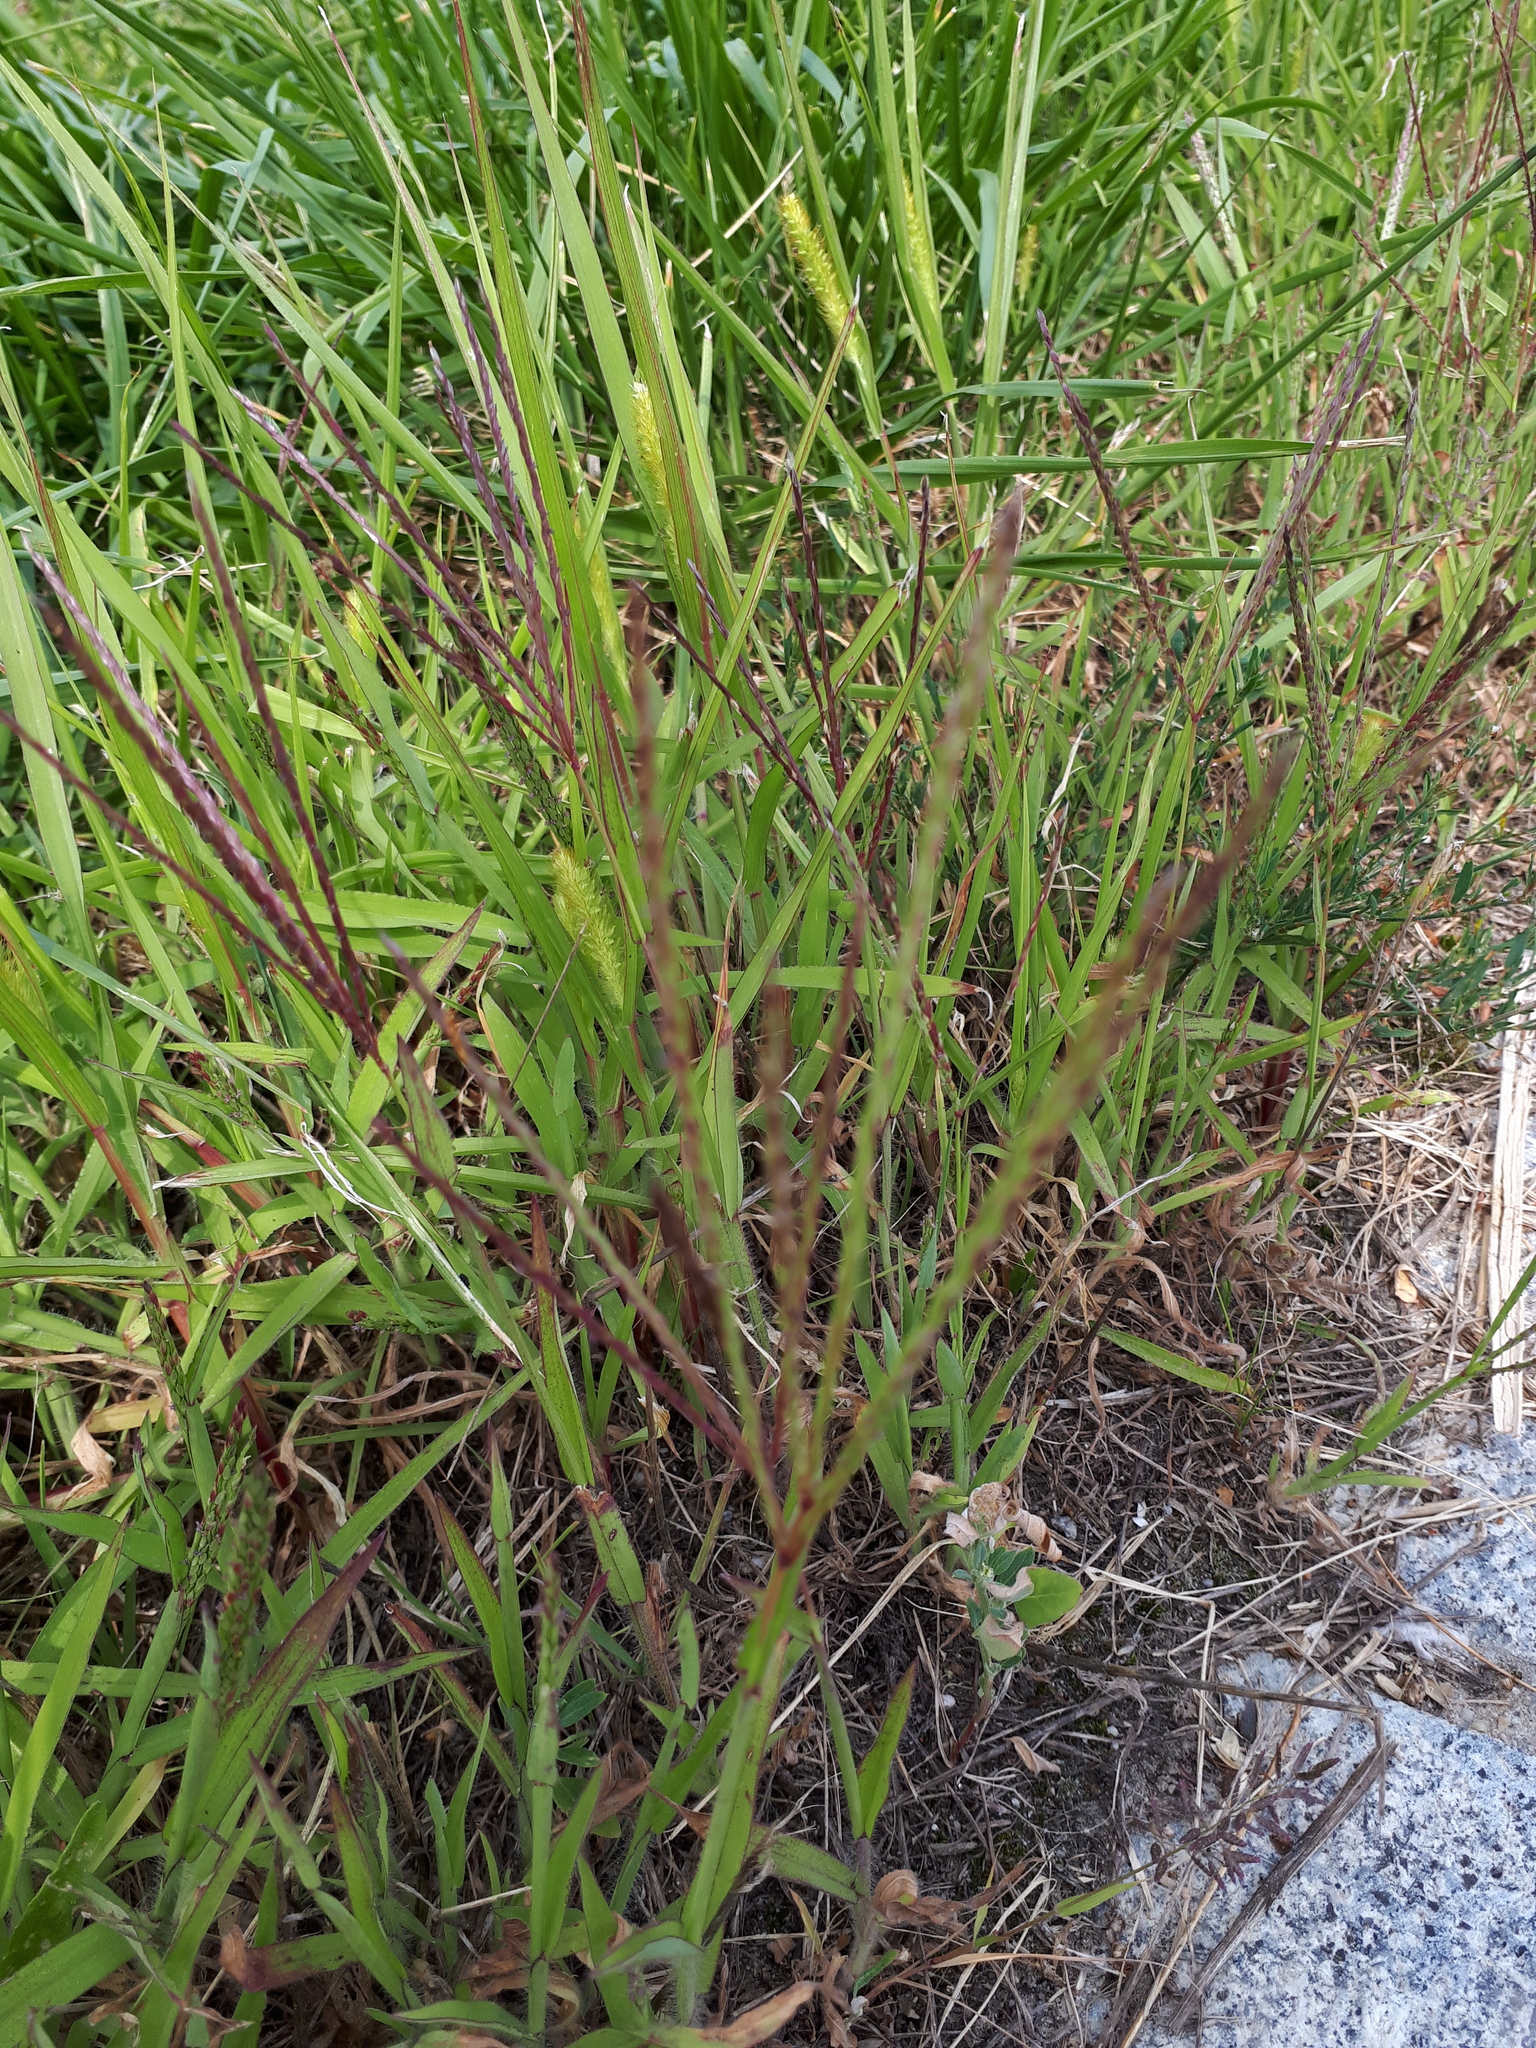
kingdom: Plantae
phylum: Tracheophyta
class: Liliopsida
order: Poales
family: Poaceae
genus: Digitaria
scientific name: Digitaria sanguinalis
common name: Hairy crabgrass
